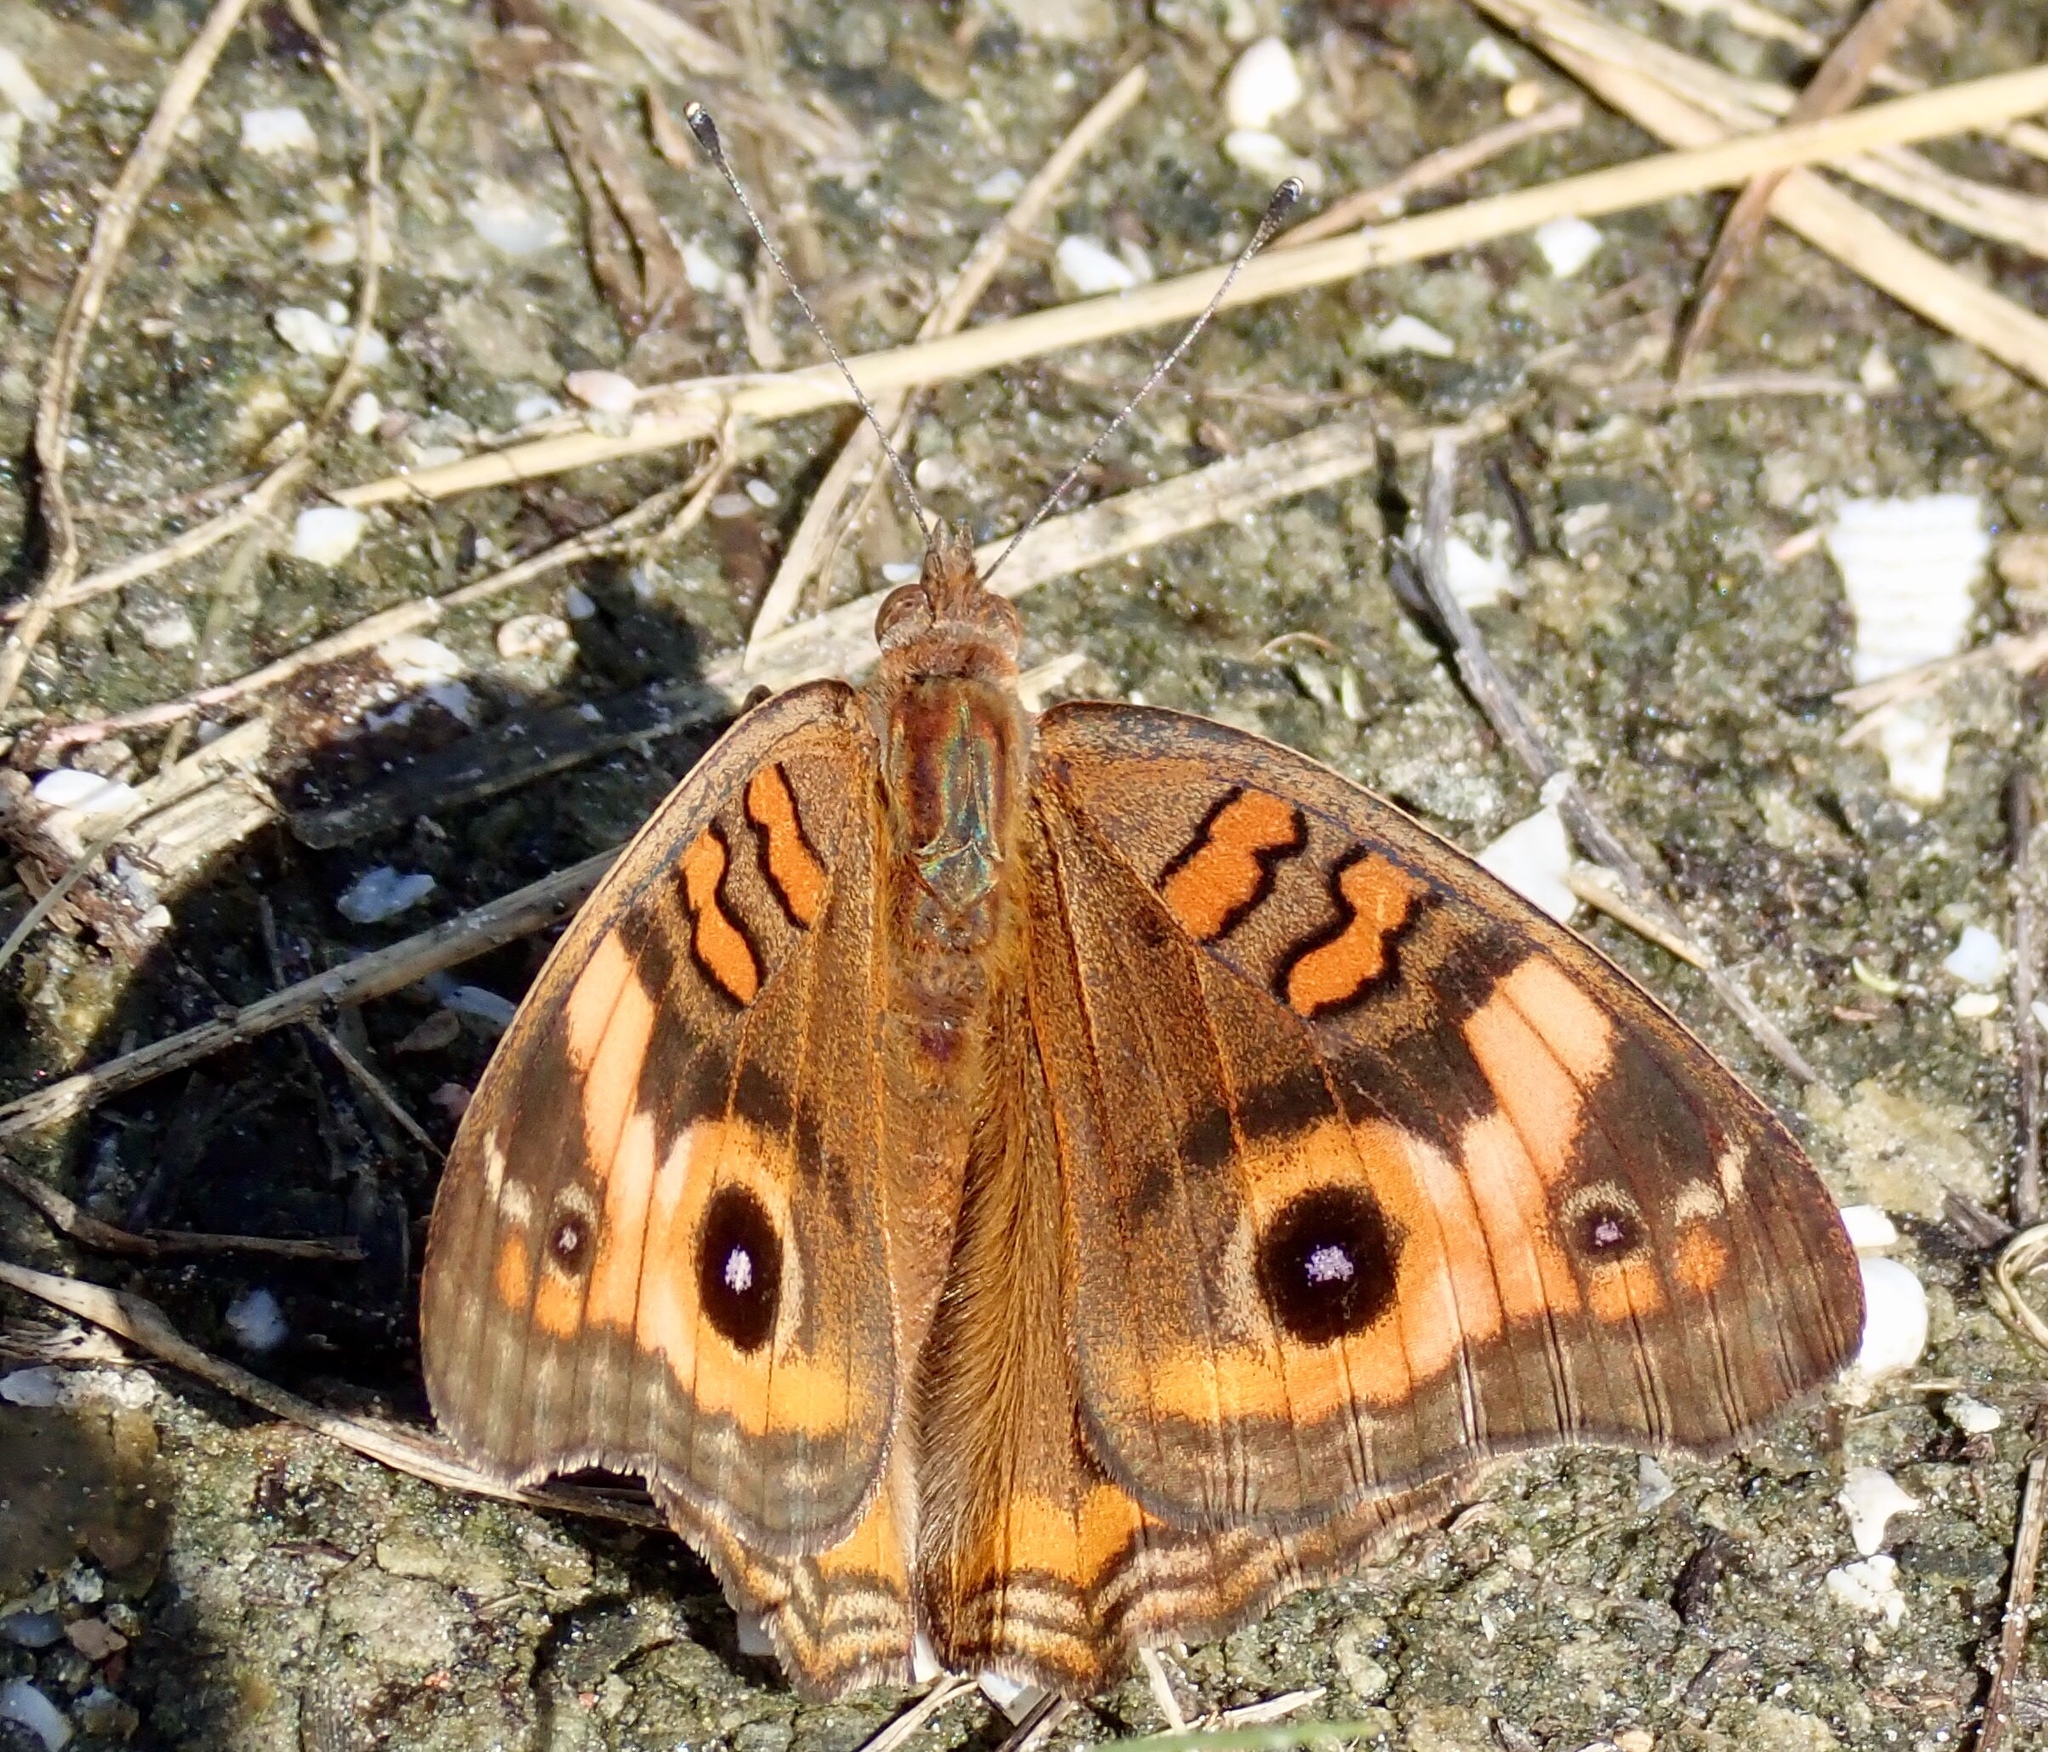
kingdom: Animalia
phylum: Arthropoda
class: Insecta
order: Lepidoptera
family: Nymphalidae
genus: Junonia
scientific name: Junonia neildi
